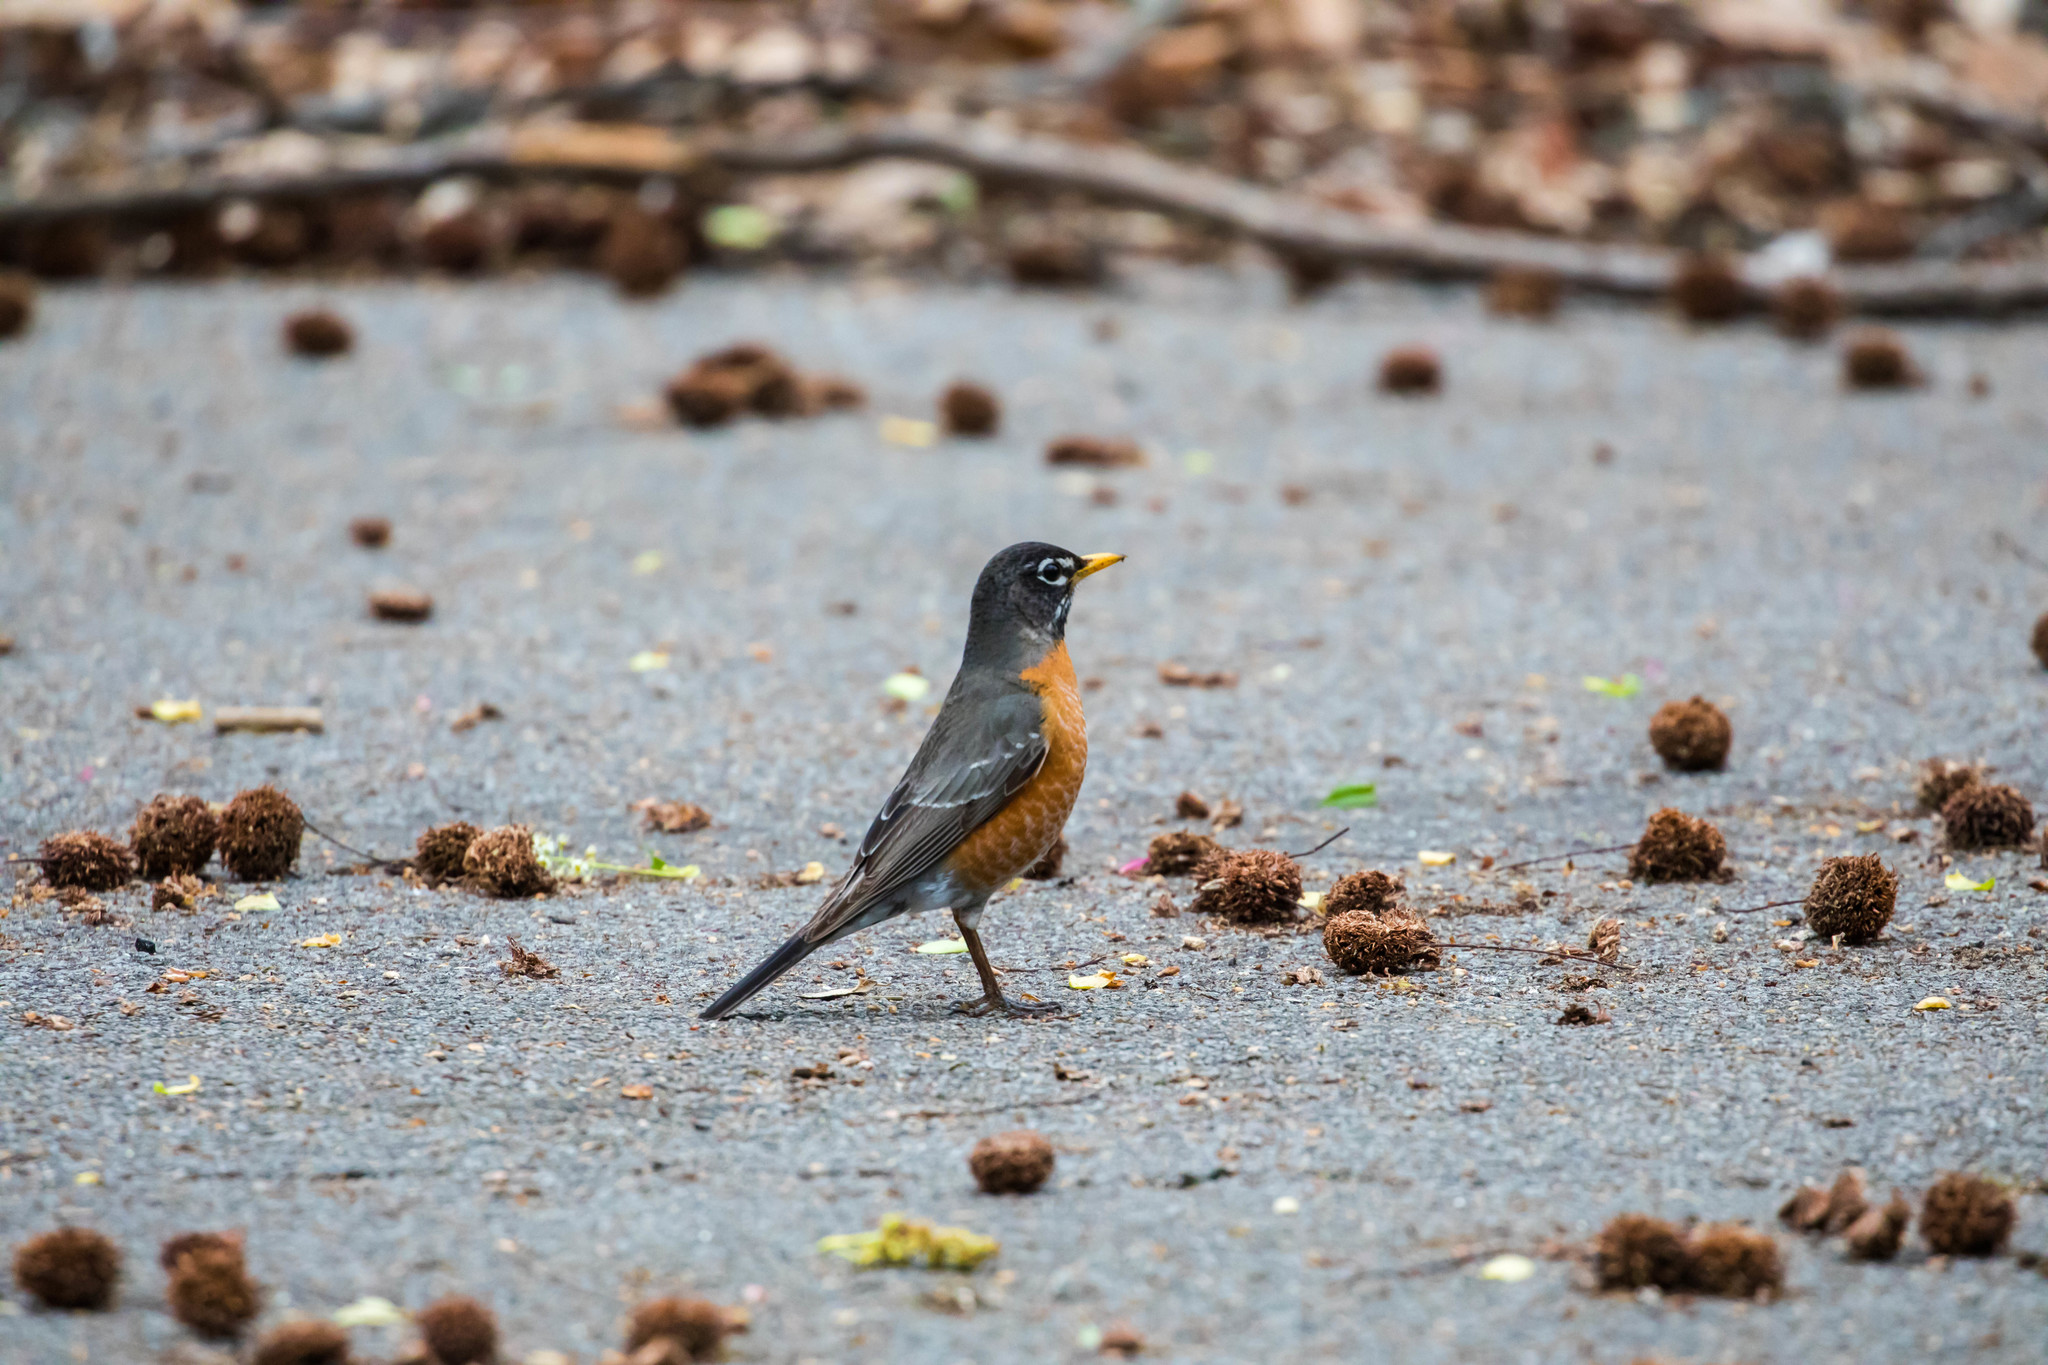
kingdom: Animalia
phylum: Chordata
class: Aves
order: Passeriformes
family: Turdidae
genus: Turdus
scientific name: Turdus migratorius
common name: American robin
